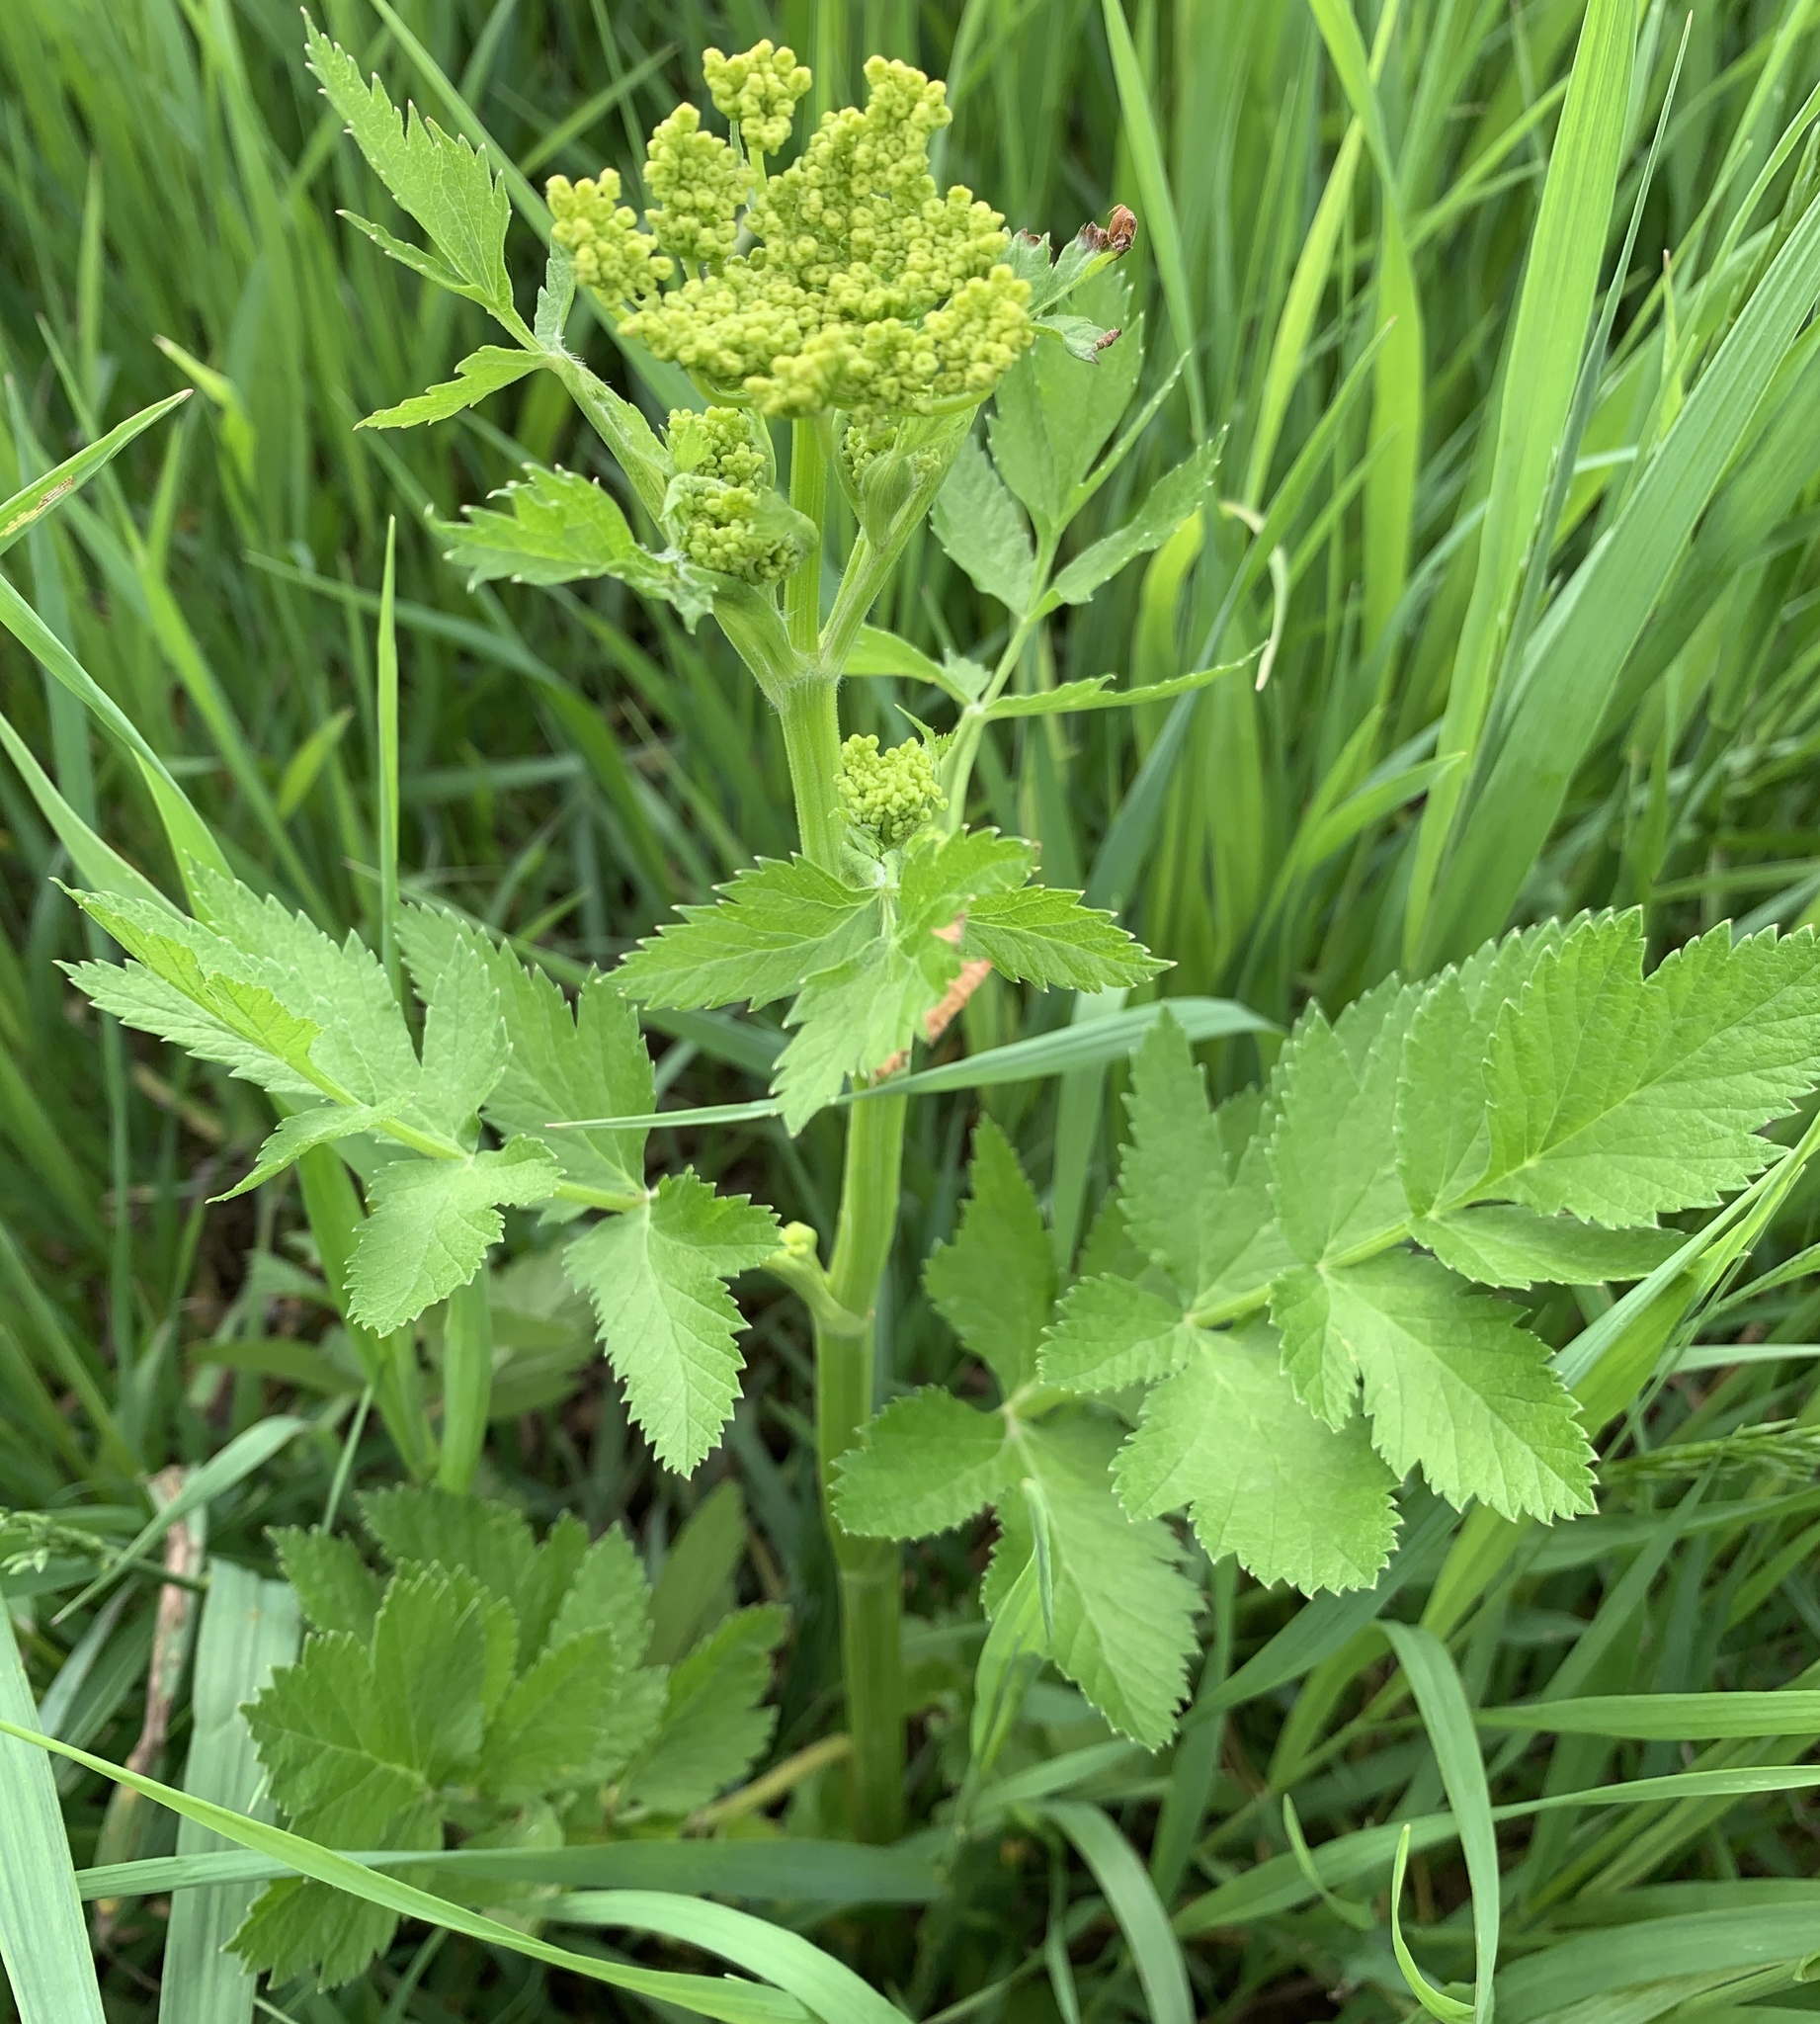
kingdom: Plantae
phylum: Tracheophyta
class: Magnoliopsida
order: Apiales
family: Apiaceae
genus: Pastinaca
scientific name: Pastinaca sativa
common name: Wild parsnip
